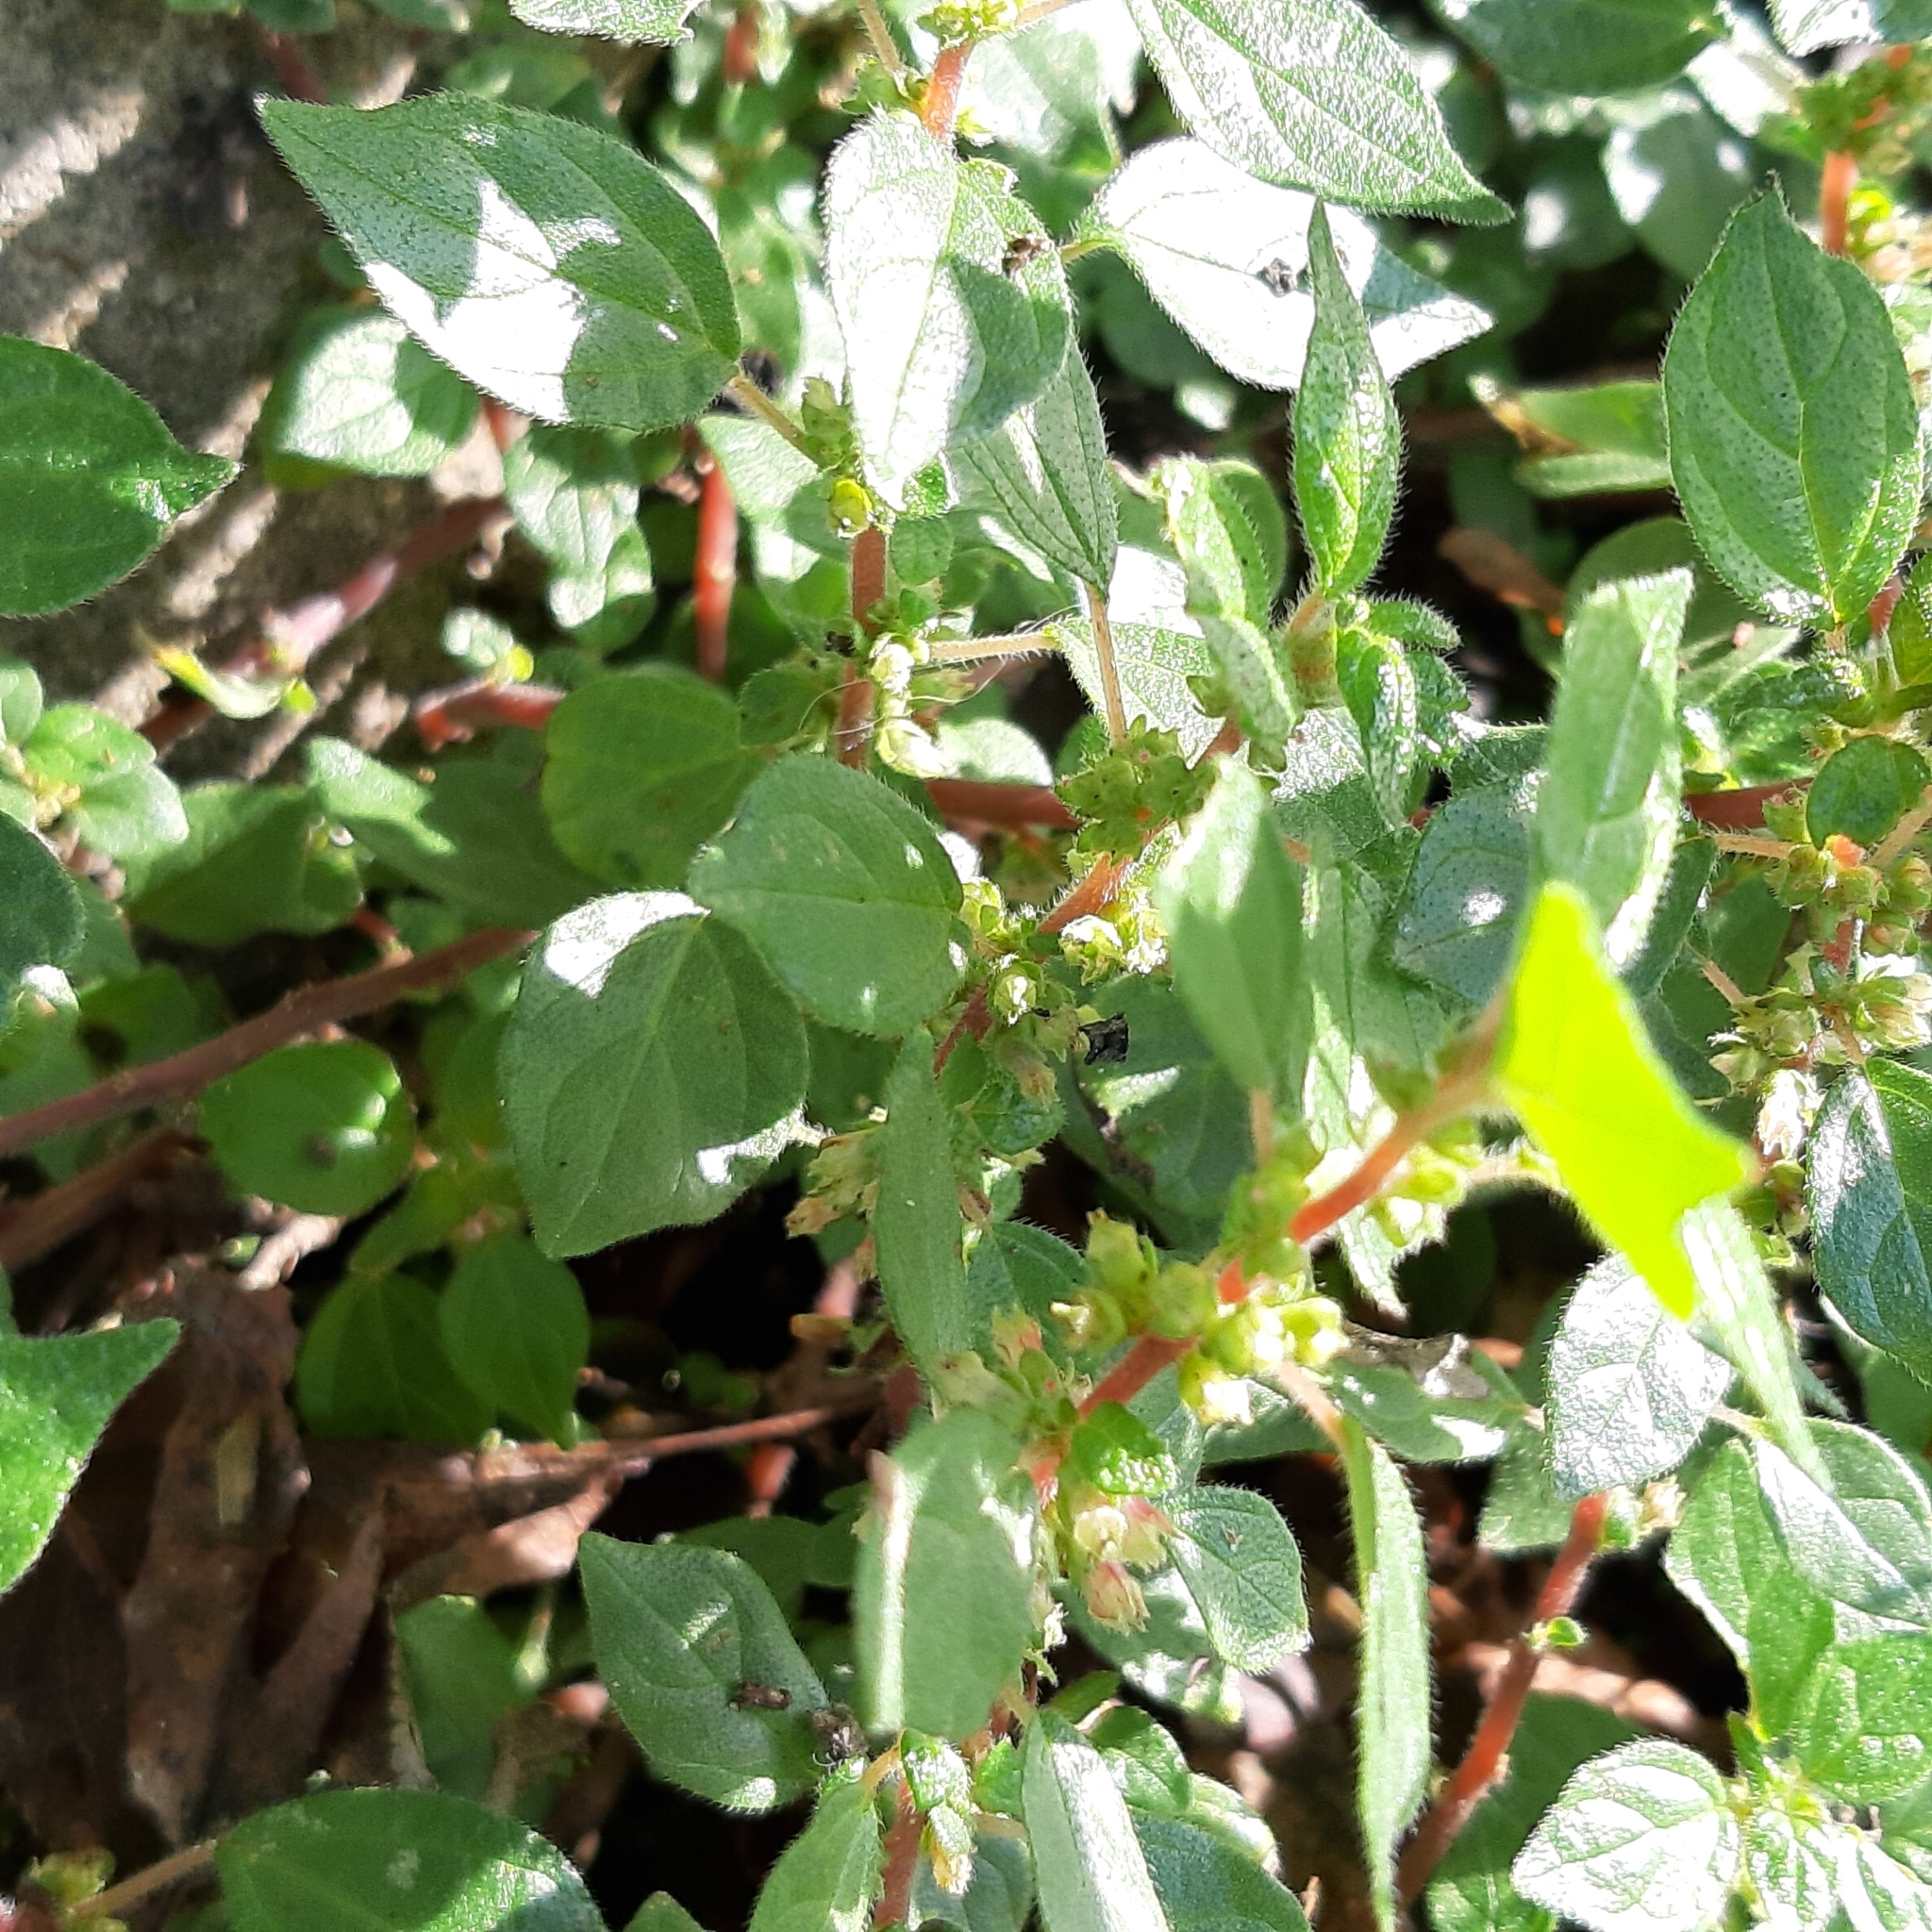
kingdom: Plantae
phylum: Tracheophyta
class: Magnoliopsida
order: Rosales
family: Urticaceae
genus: Parietaria
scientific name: Parietaria judaica
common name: Pellitory-of-the-wall
